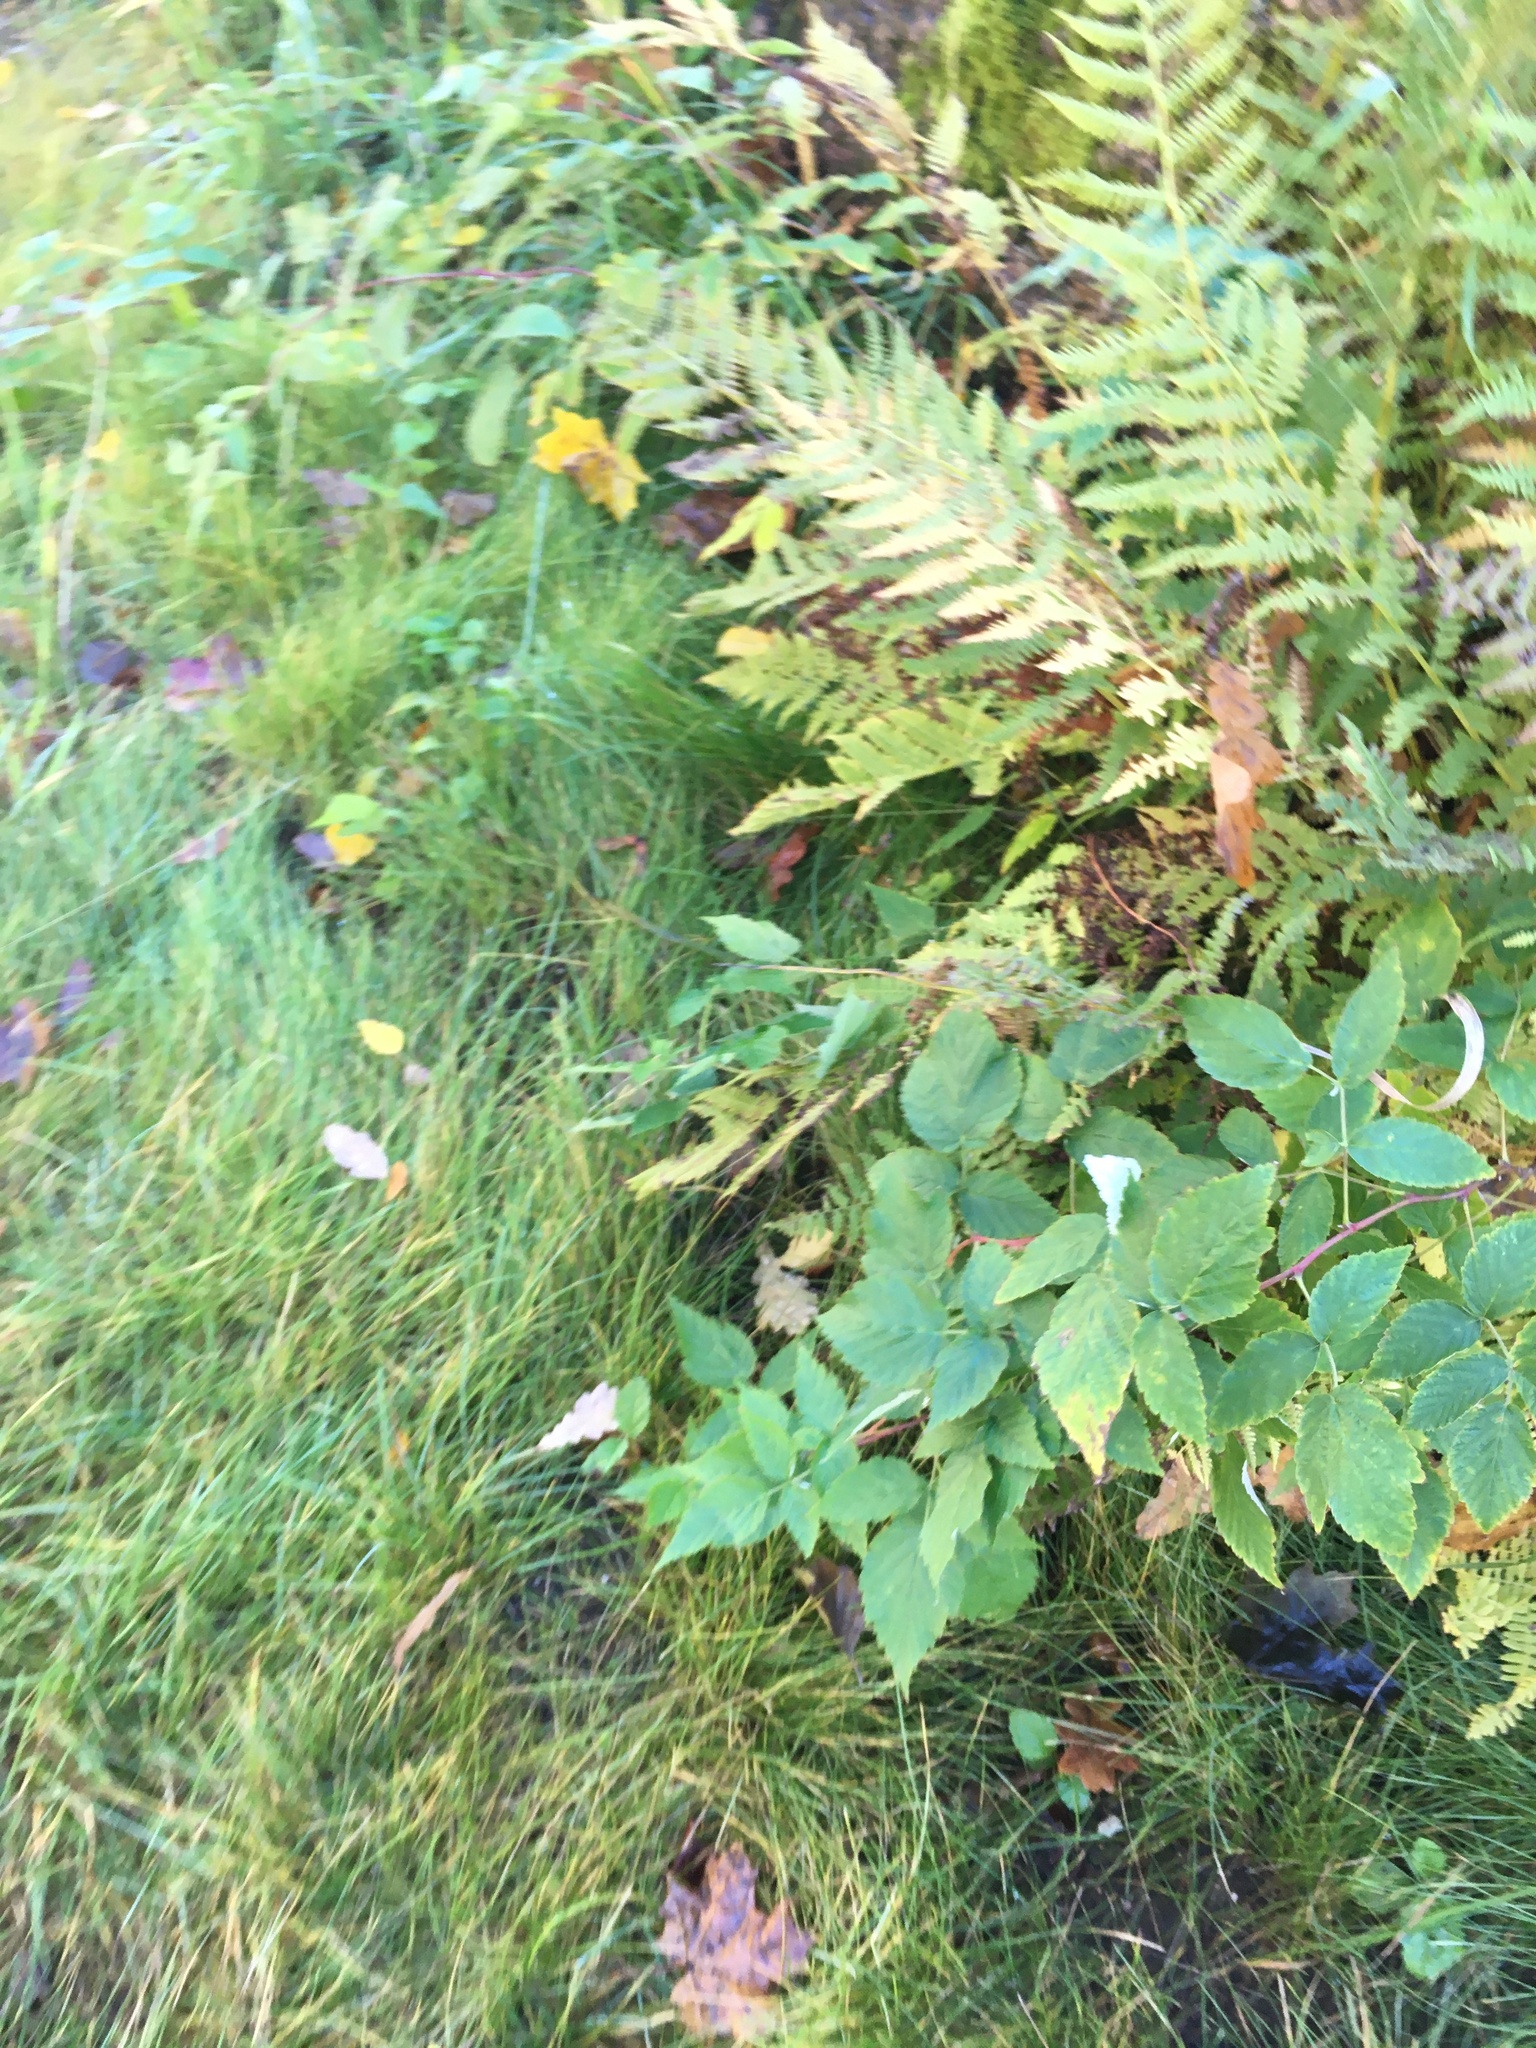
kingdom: Plantae
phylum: Tracheophyta
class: Magnoliopsida
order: Rosales
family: Rosaceae
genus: Rubus
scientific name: Rubus idaeus
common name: Raspberry
